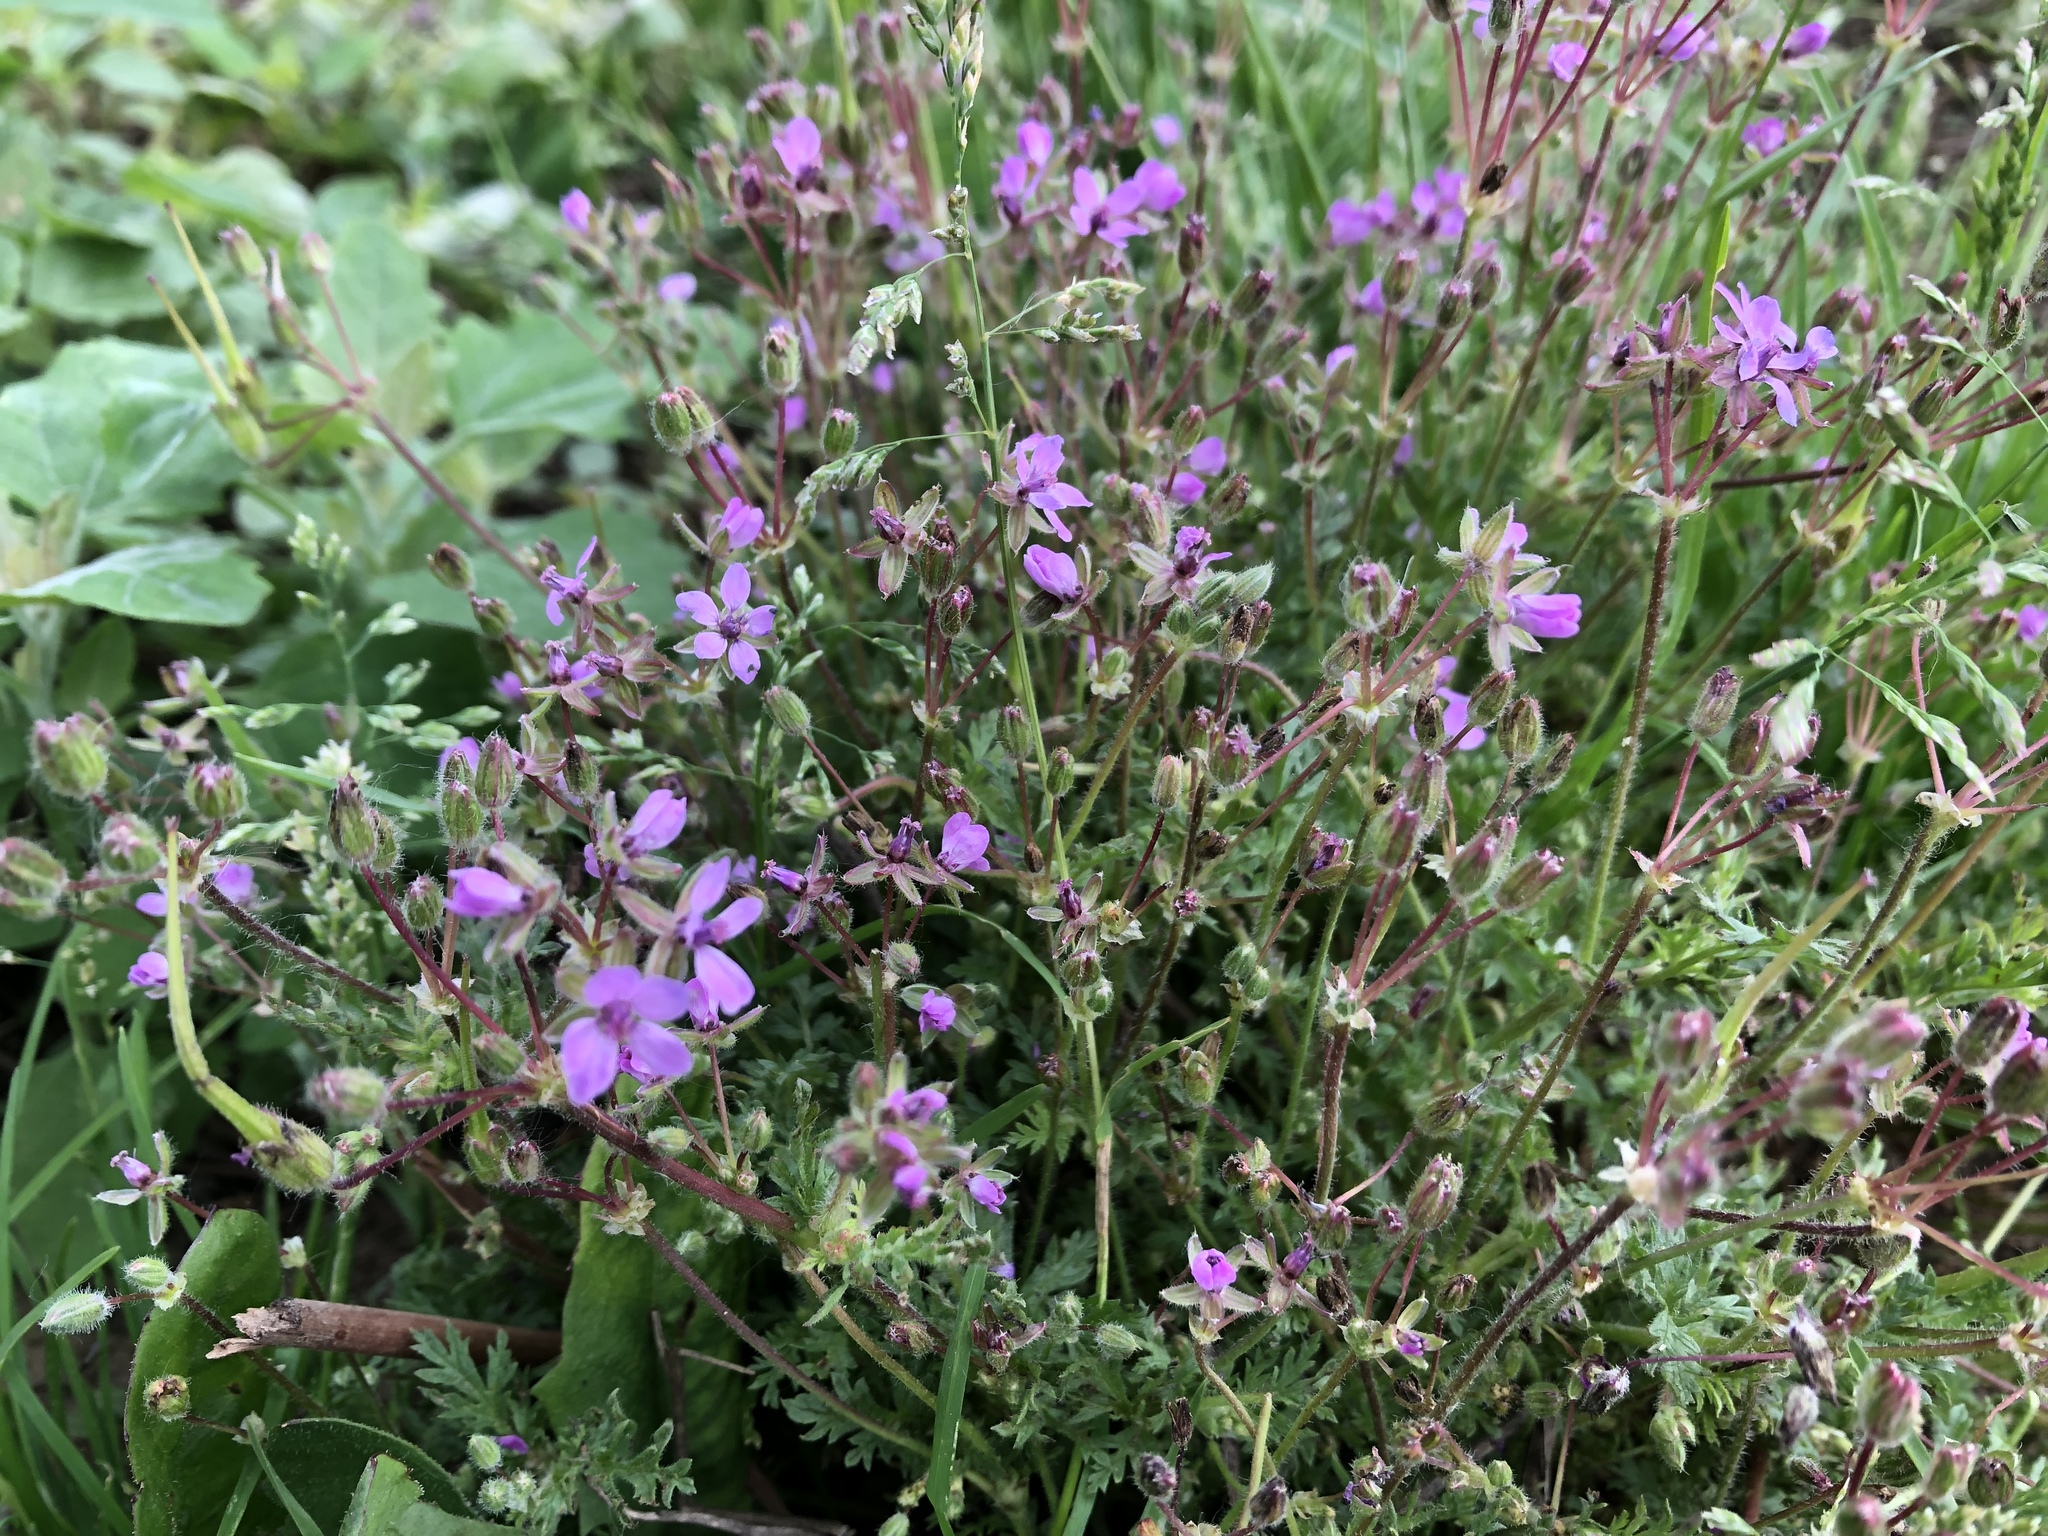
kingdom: Plantae
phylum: Tracheophyta
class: Magnoliopsida
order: Geraniales
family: Geraniaceae
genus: Erodium
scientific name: Erodium cicutarium
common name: Common stork's-bill
